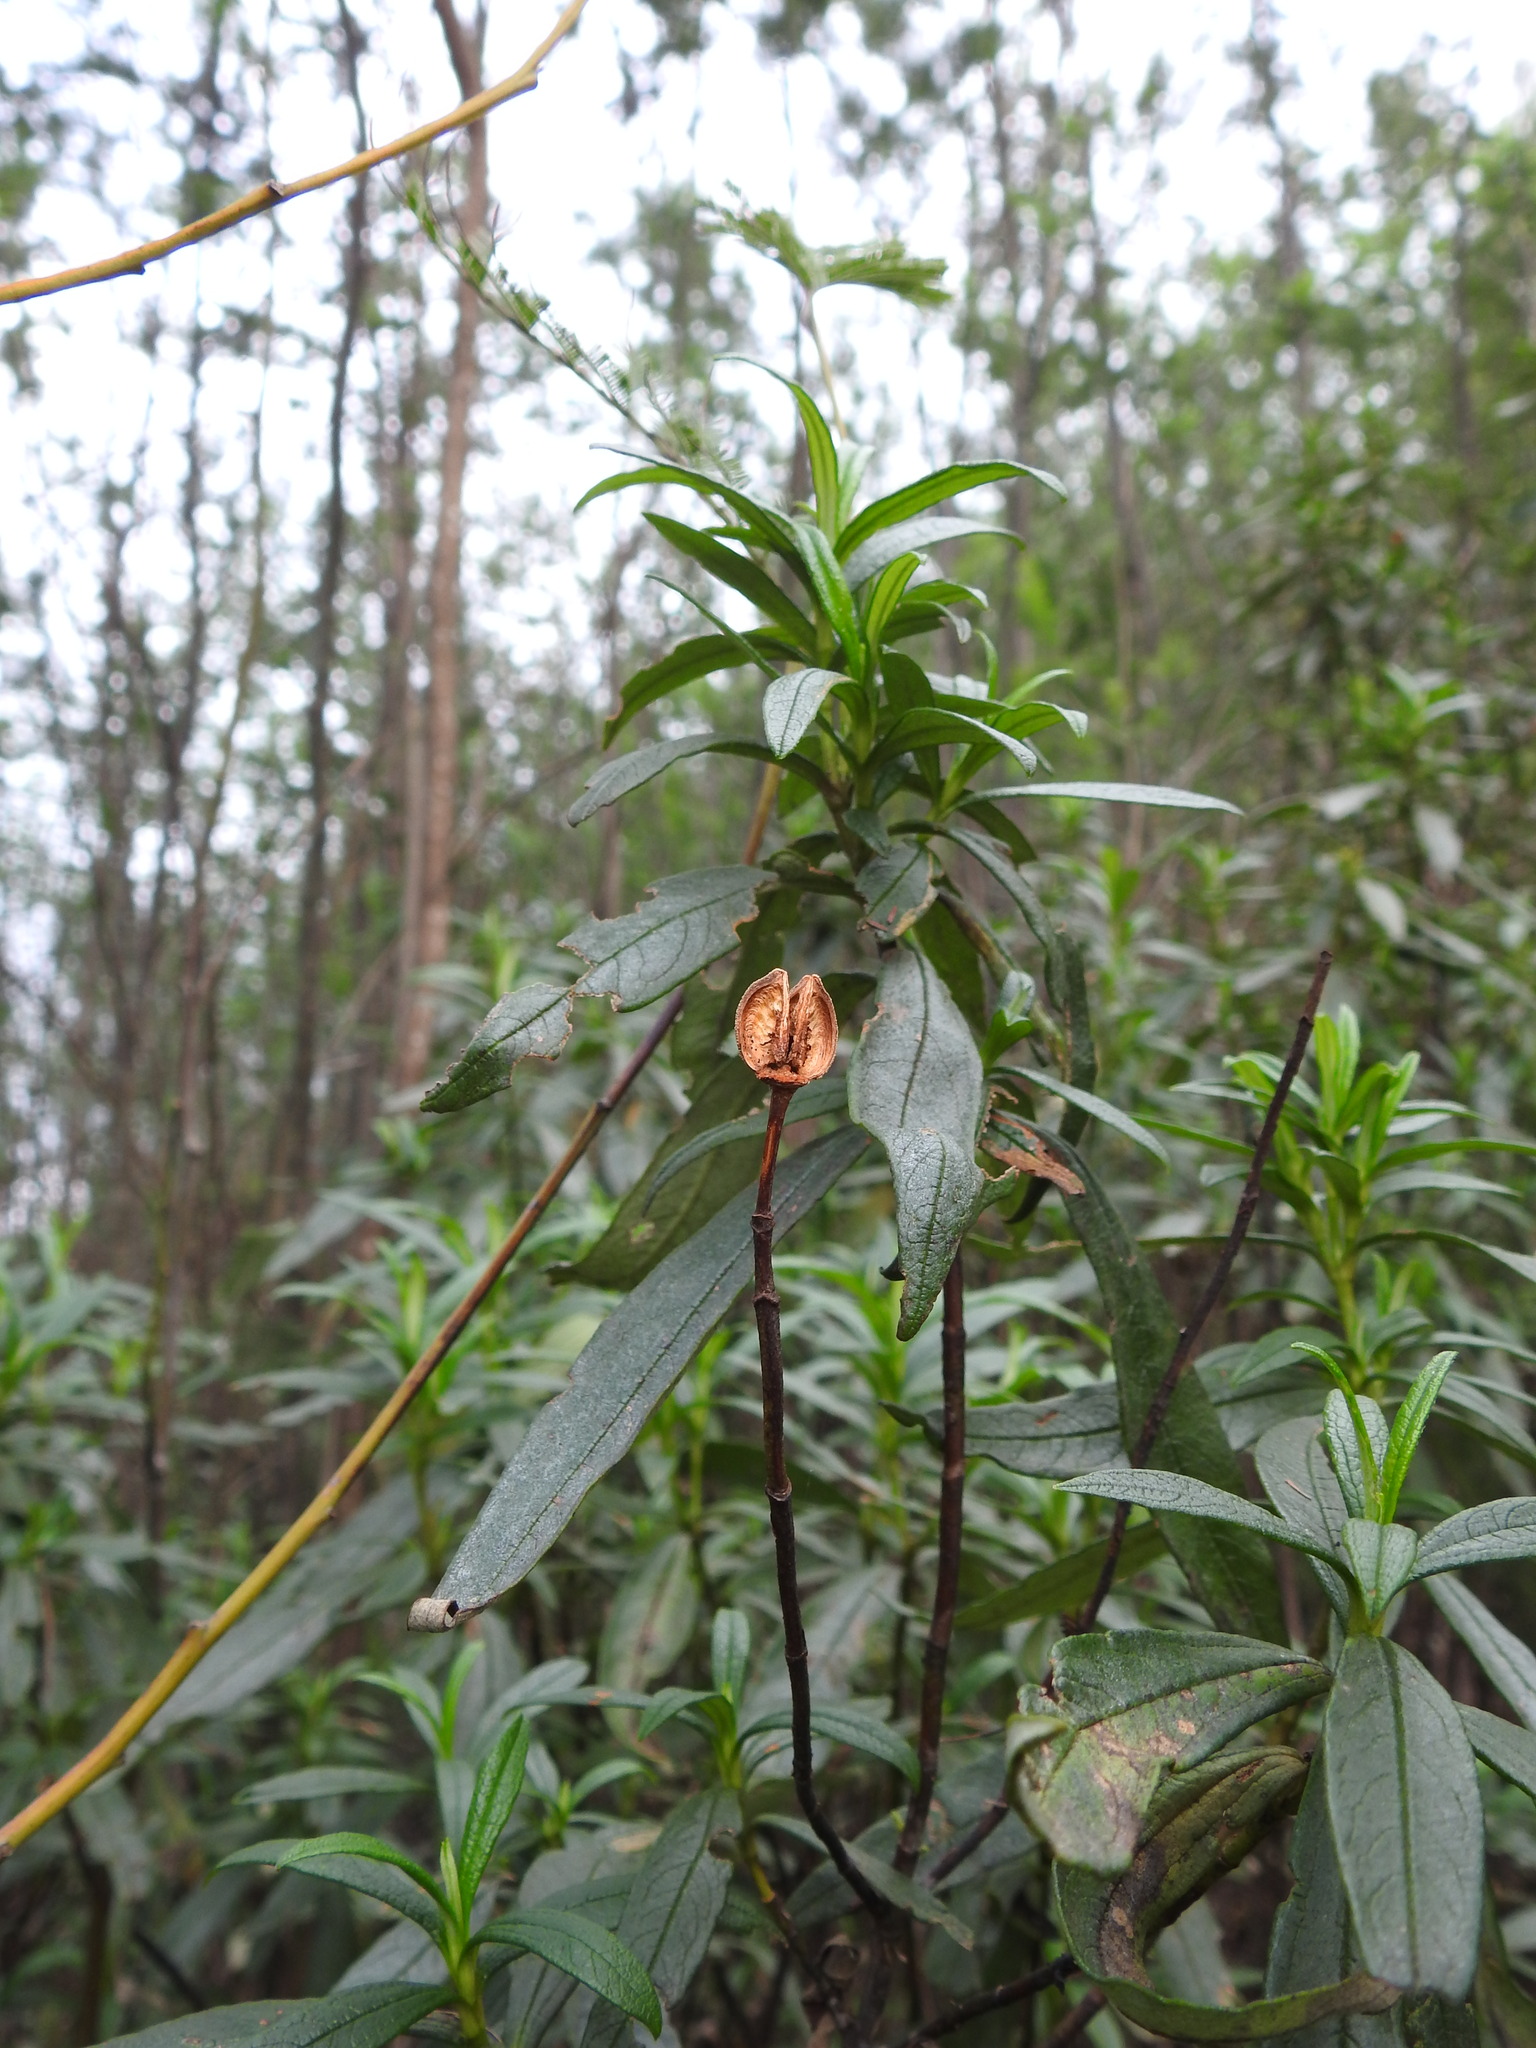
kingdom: Plantae
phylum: Tracheophyta
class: Magnoliopsida
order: Malvales
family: Cistaceae
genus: Cistus
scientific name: Cistus ladanifer
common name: Common gum cistus
